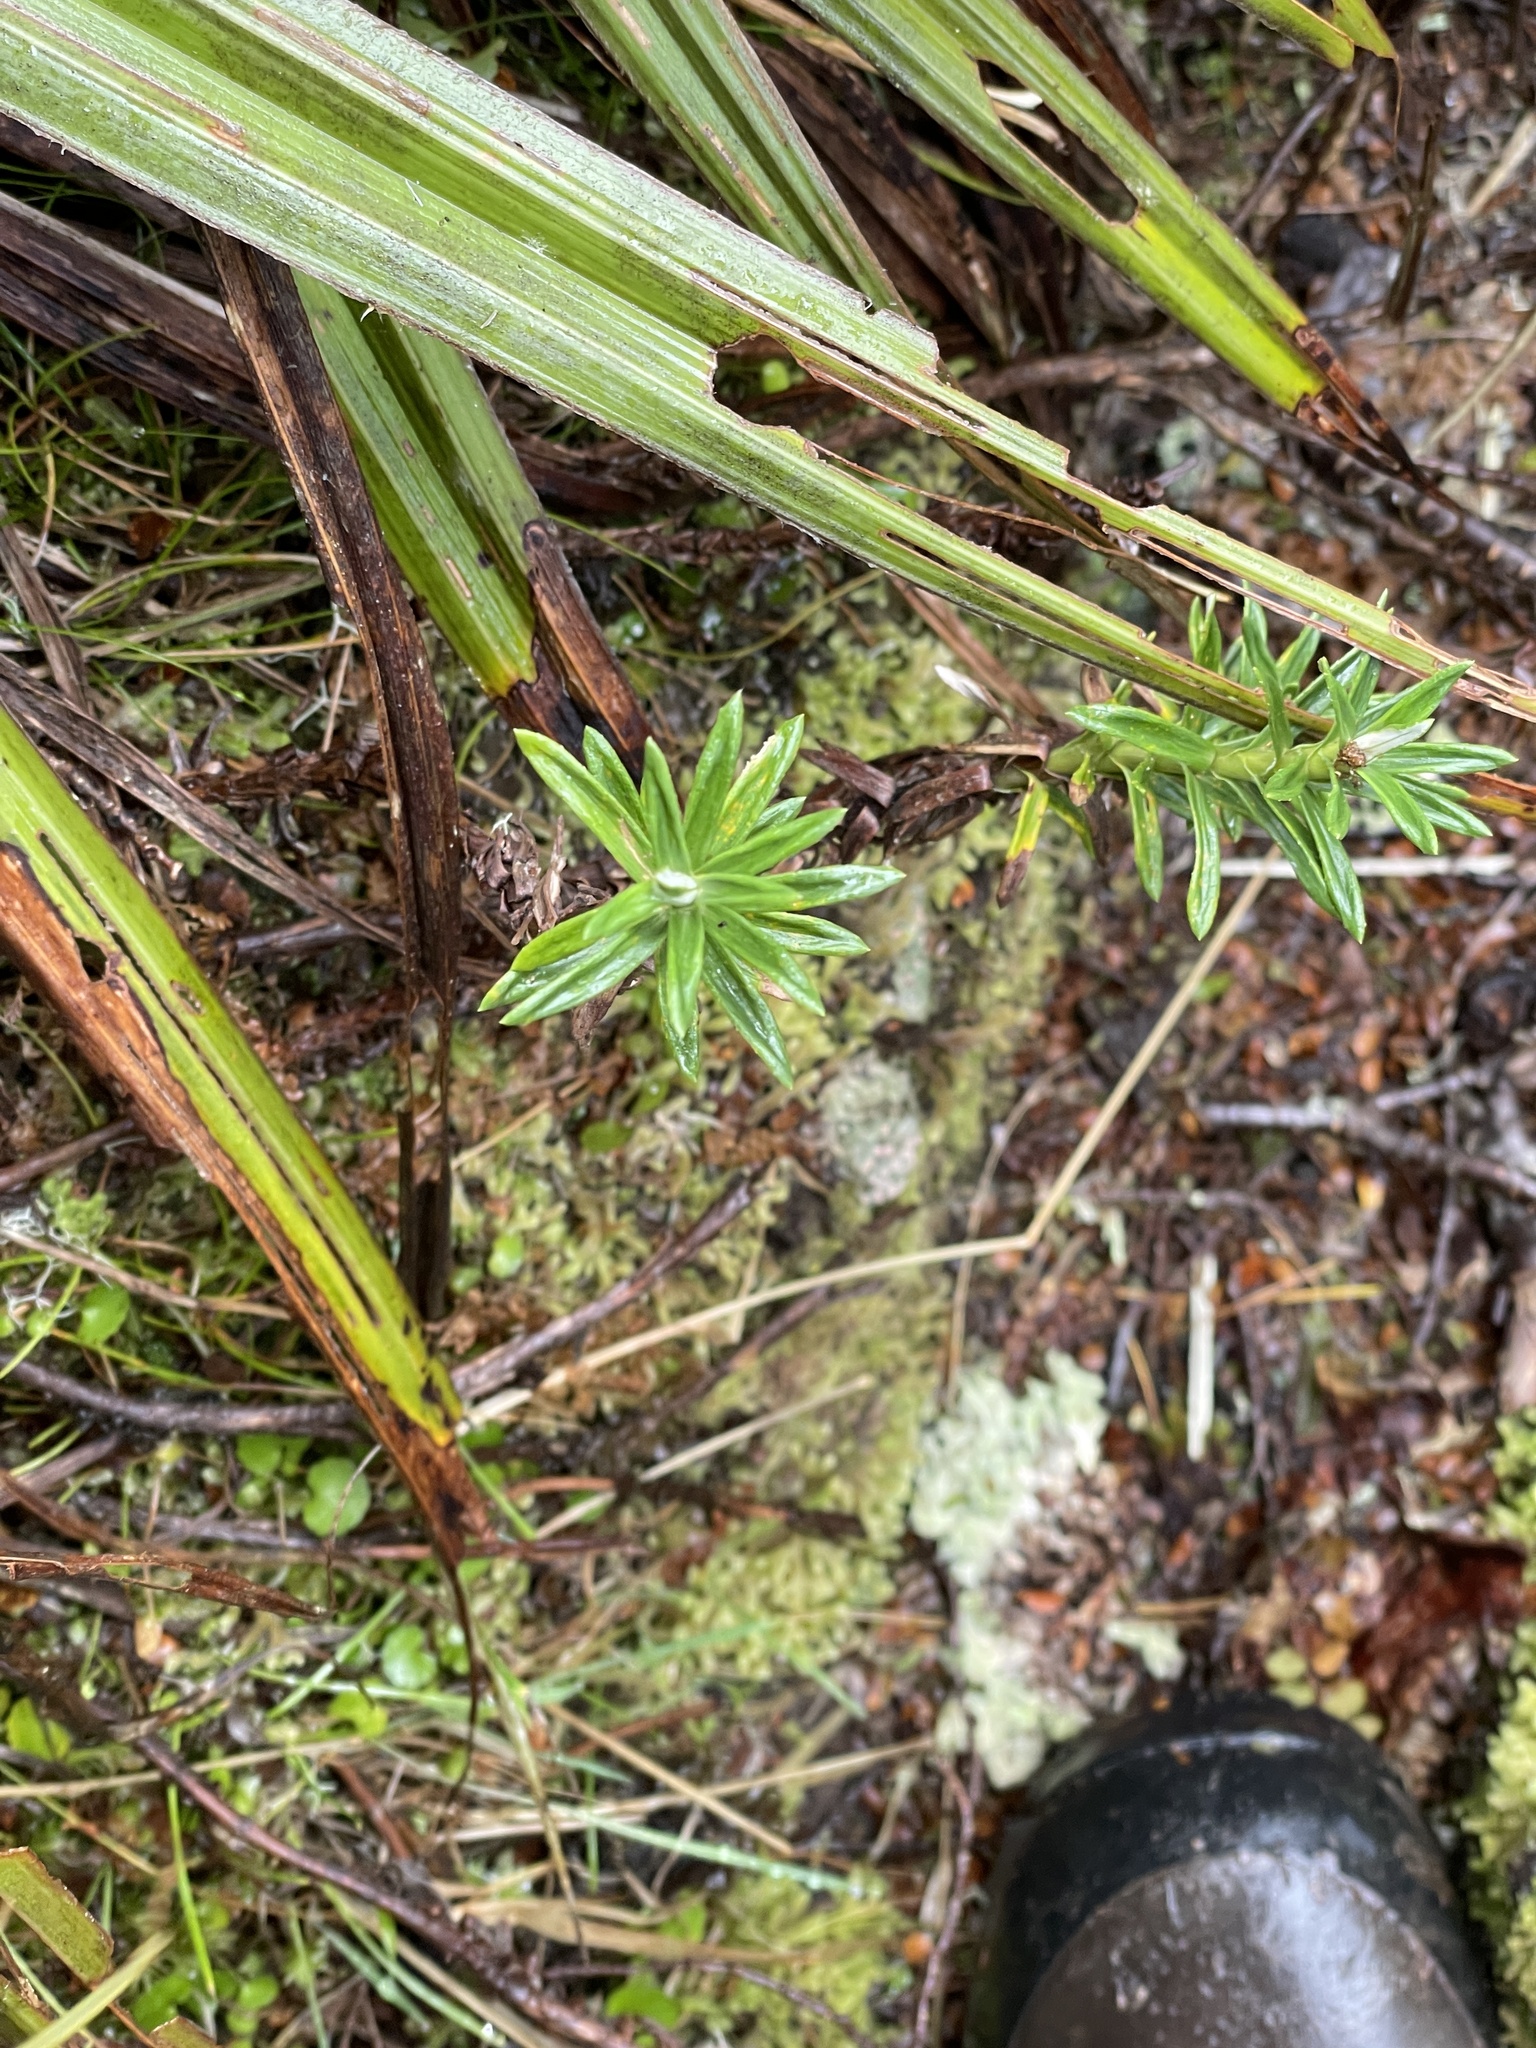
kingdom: Plantae
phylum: Tracheophyta
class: Magnoliopsida
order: Asterales
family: Asteraceae
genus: Celmisia
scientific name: Celmisia walkeri
